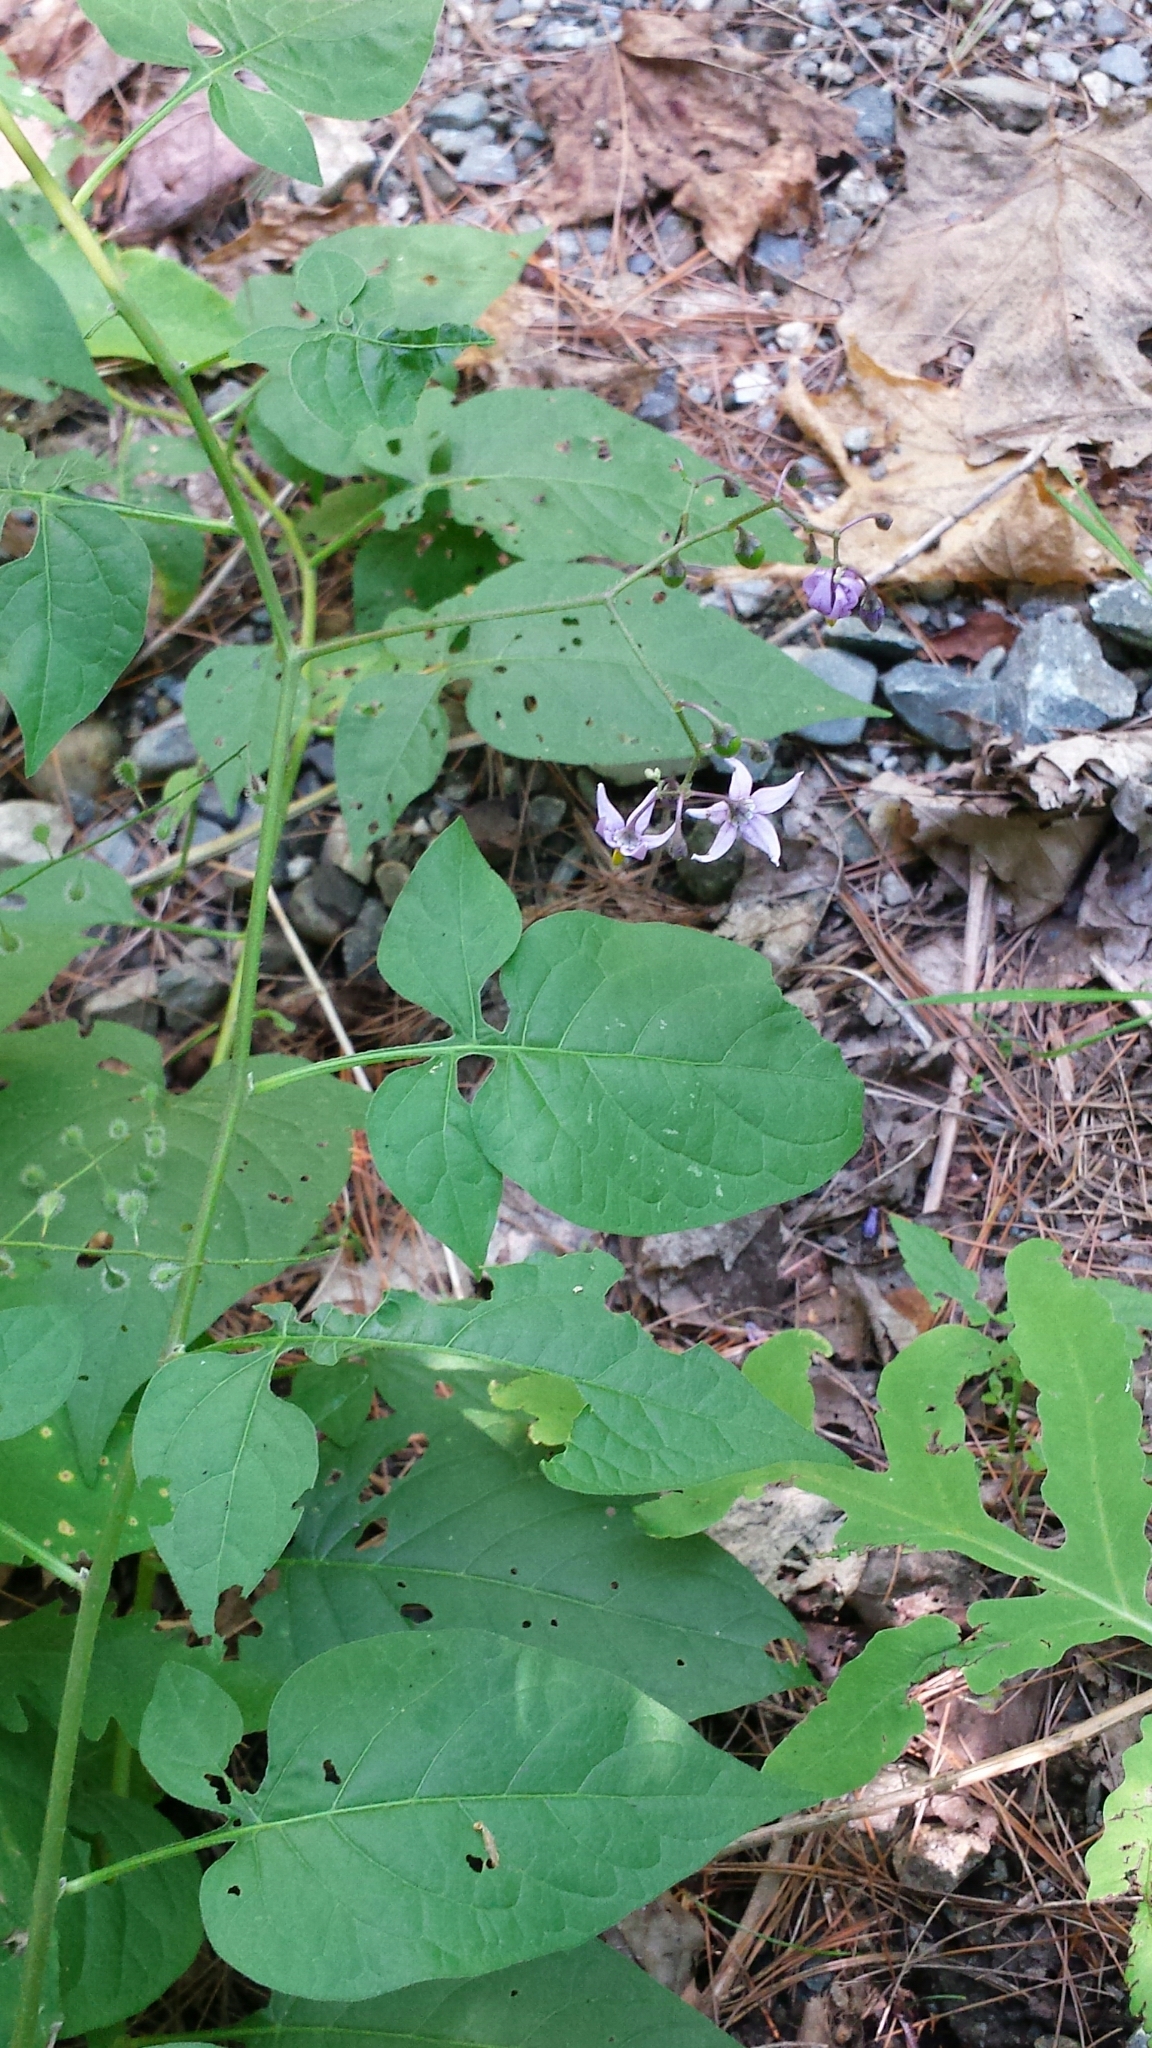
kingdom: Plantae
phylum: Tracheophyta
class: Magnoliopsida
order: Solanales
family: Solanaceae
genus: Solanum
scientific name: Solanum dulcamara
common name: Climbing nightshade
